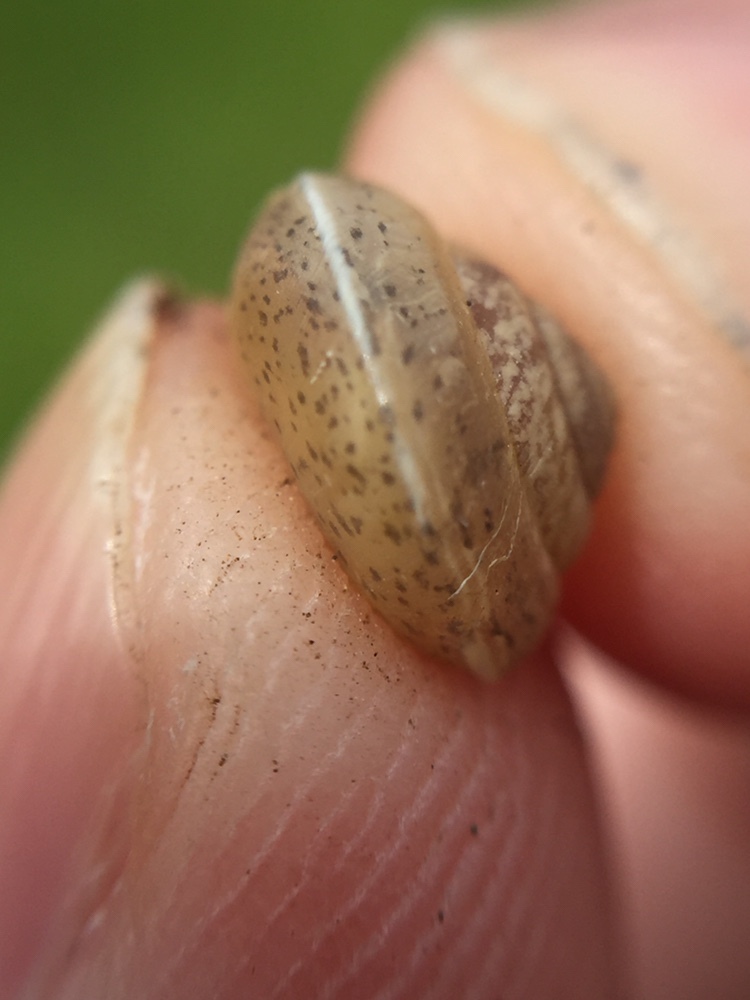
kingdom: Animalia
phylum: Mollusca
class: Gastropoda
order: Stylommatophora
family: Hygromiidae
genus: Hygromia
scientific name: Hygromia cinctella
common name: Girdled snail
